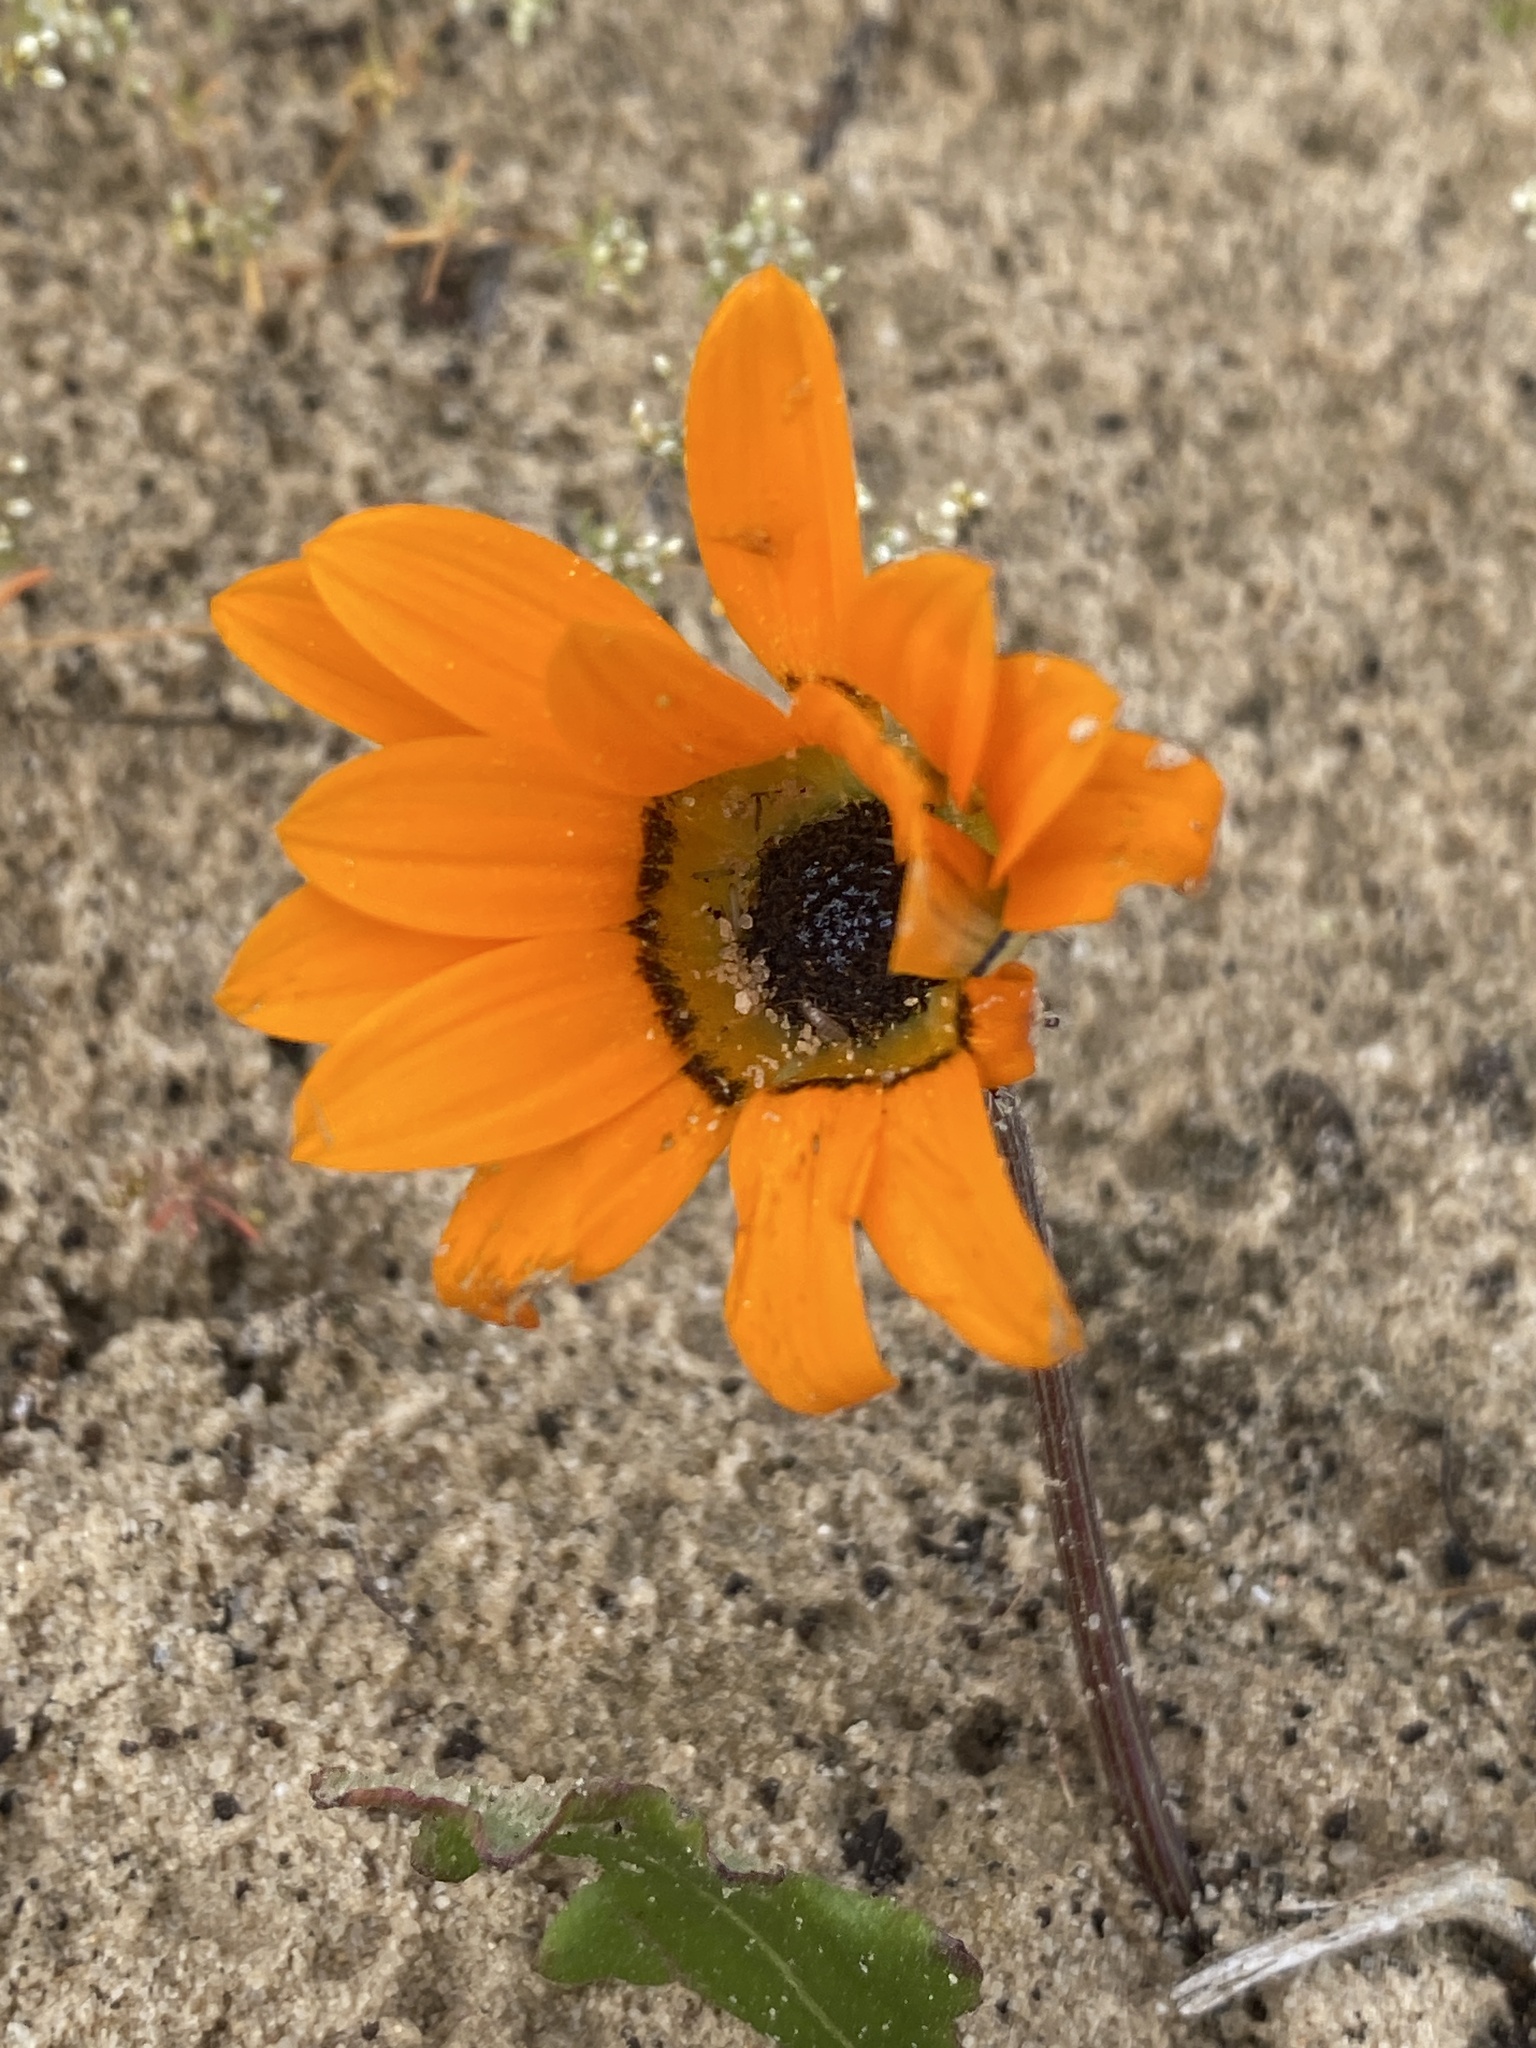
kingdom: Plantae
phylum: Tracheophyta
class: Magnoliopsida
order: Asterales
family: Asteraceae
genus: Arctotis
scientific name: Arctotis breviscapa
